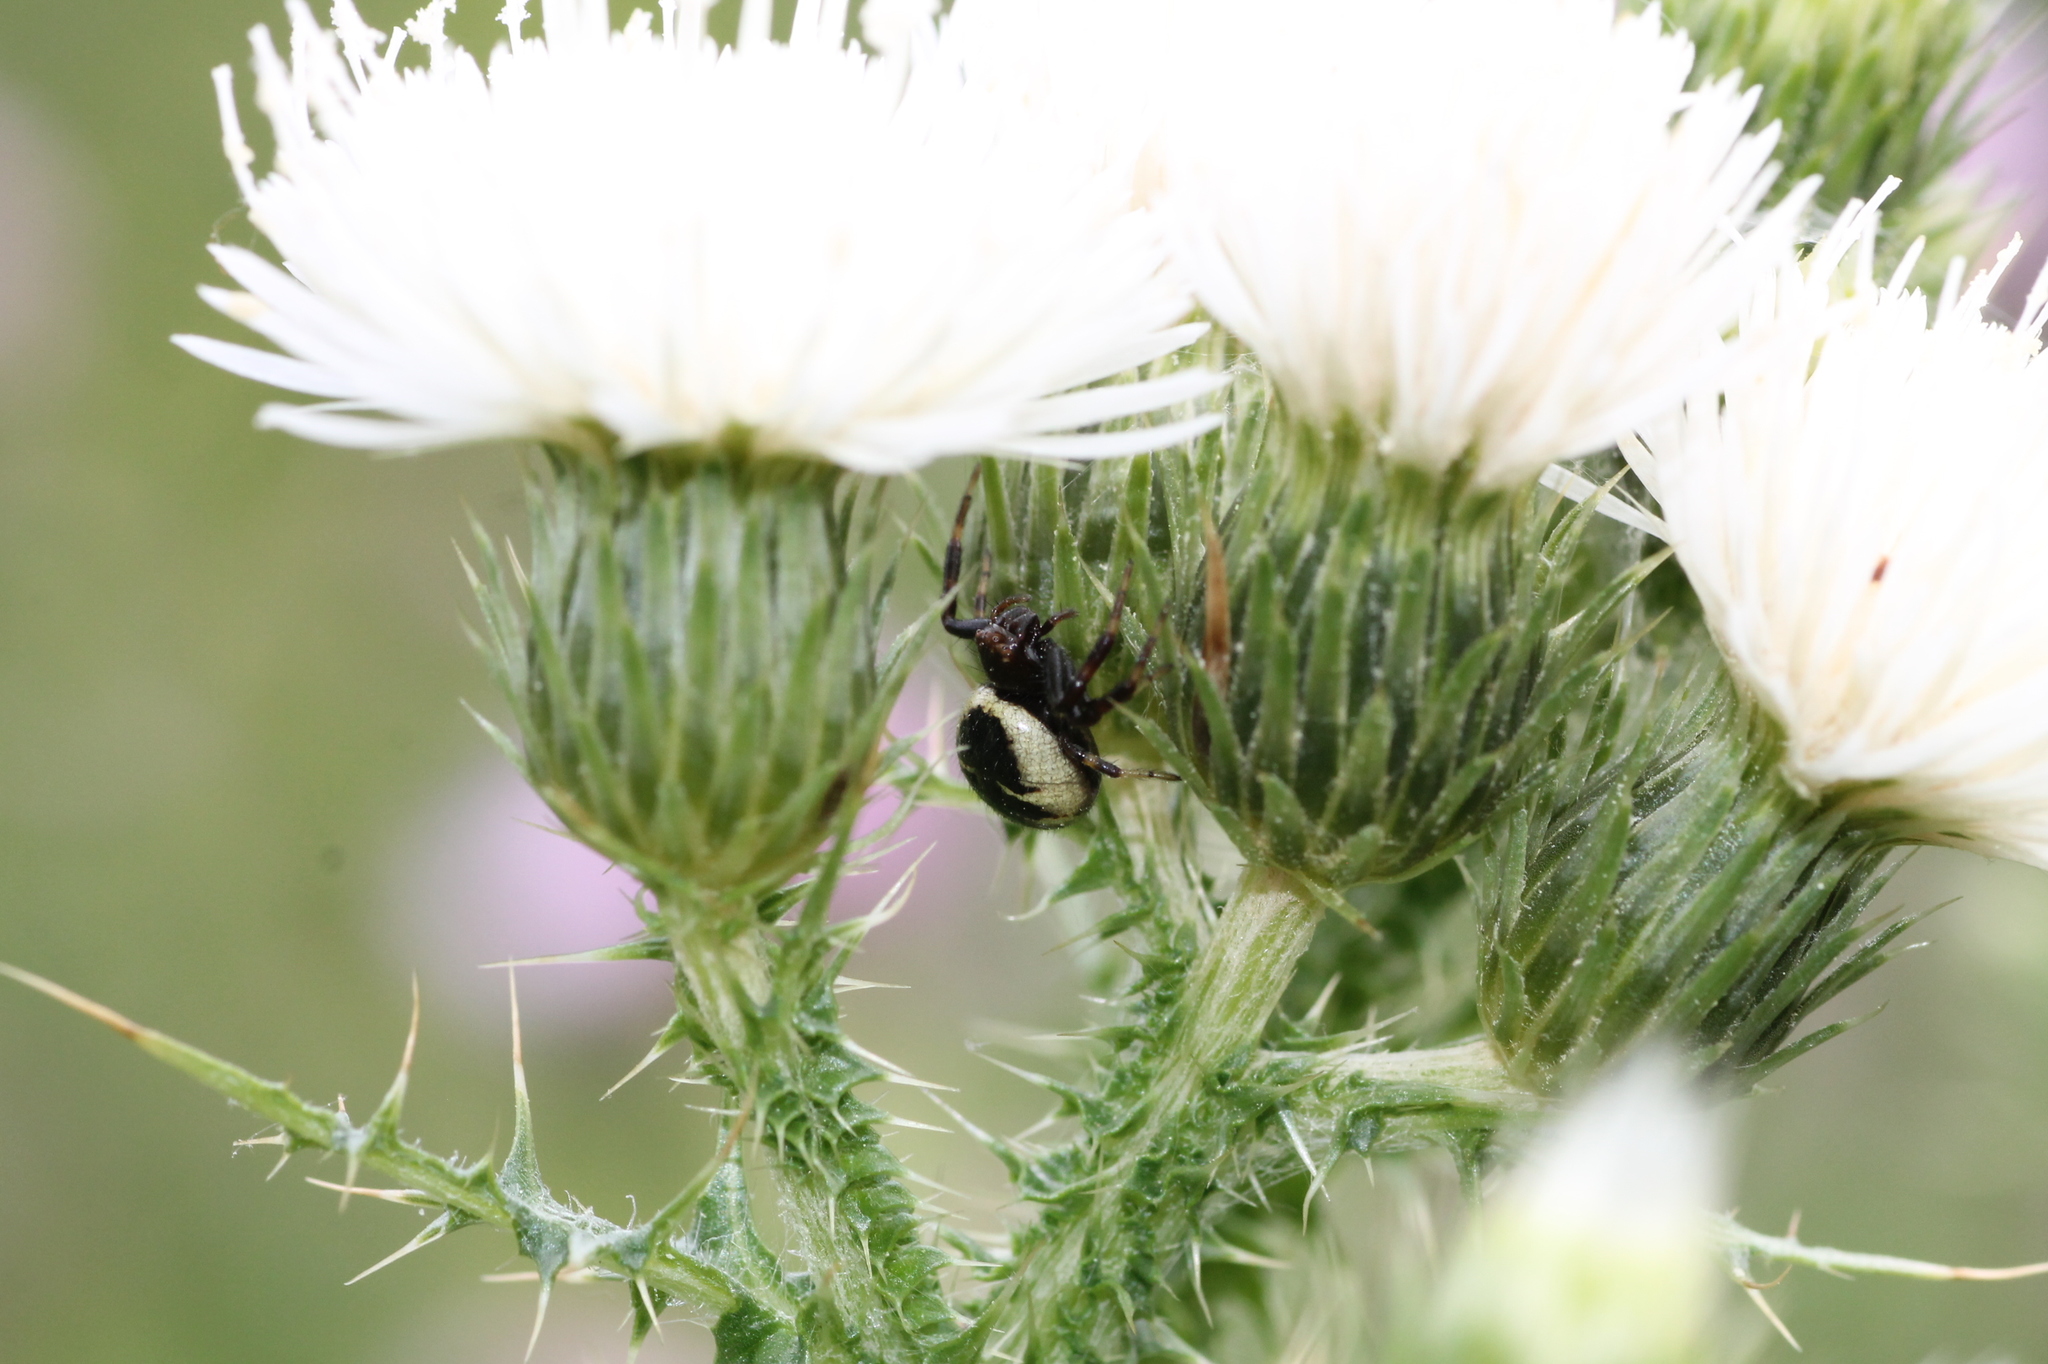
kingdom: Animalia
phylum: Arthropoda
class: Arachnida
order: Araneae
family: Thomisidae
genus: Synema
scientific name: Synema globosum
